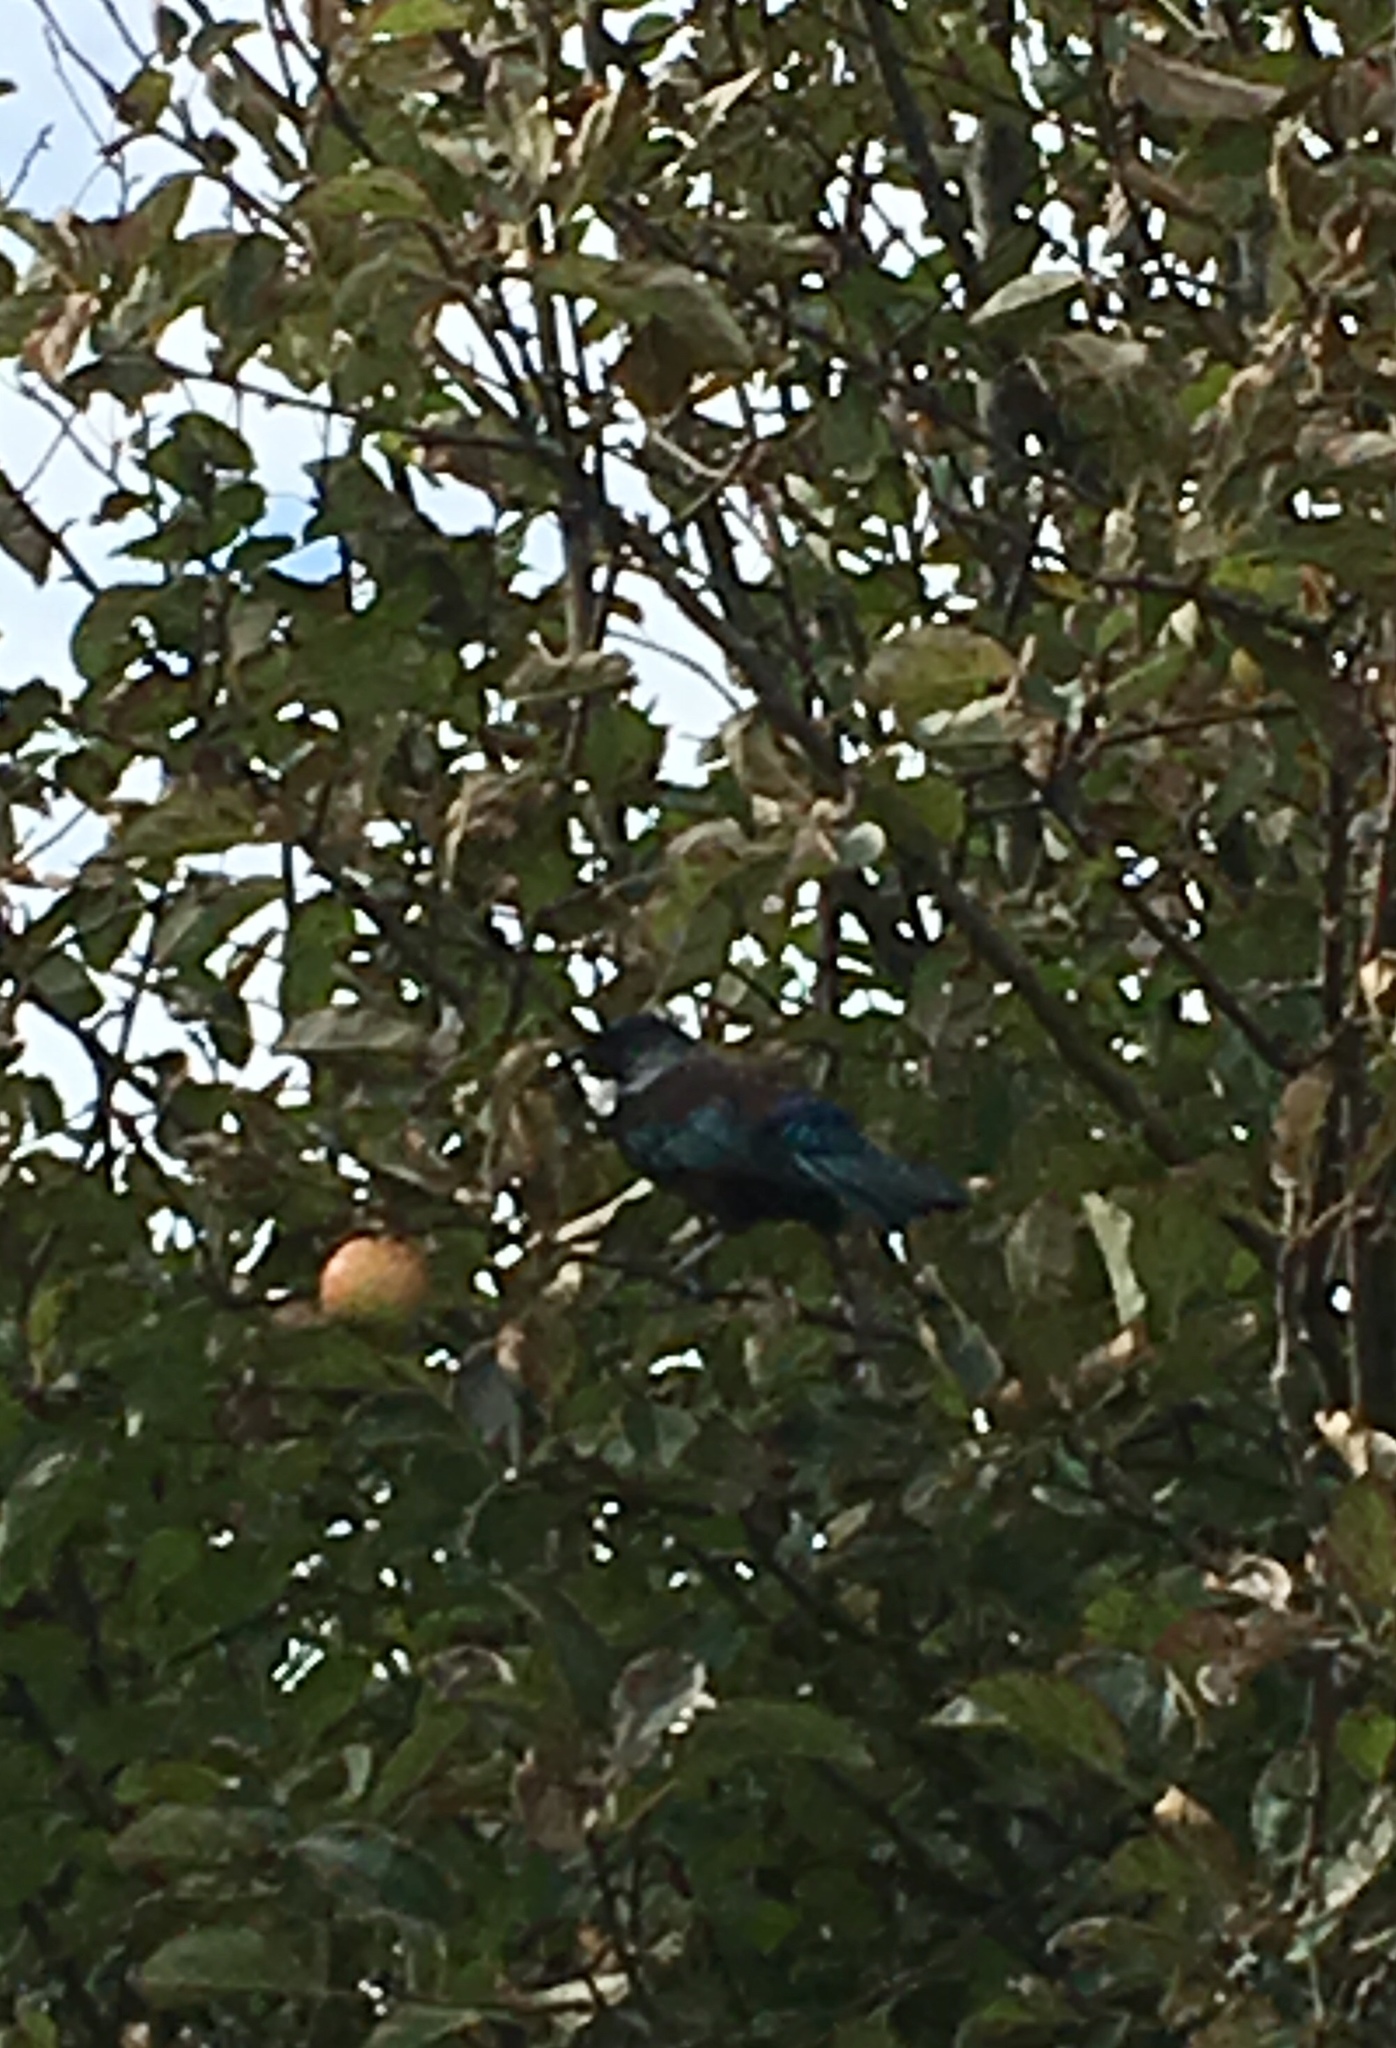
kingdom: Animalia
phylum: Chordata
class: Aves
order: Passeriformes
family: Meliphagidae
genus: Prosthemadera
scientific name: Prosthemadera novaeseelandiae
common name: Tui
